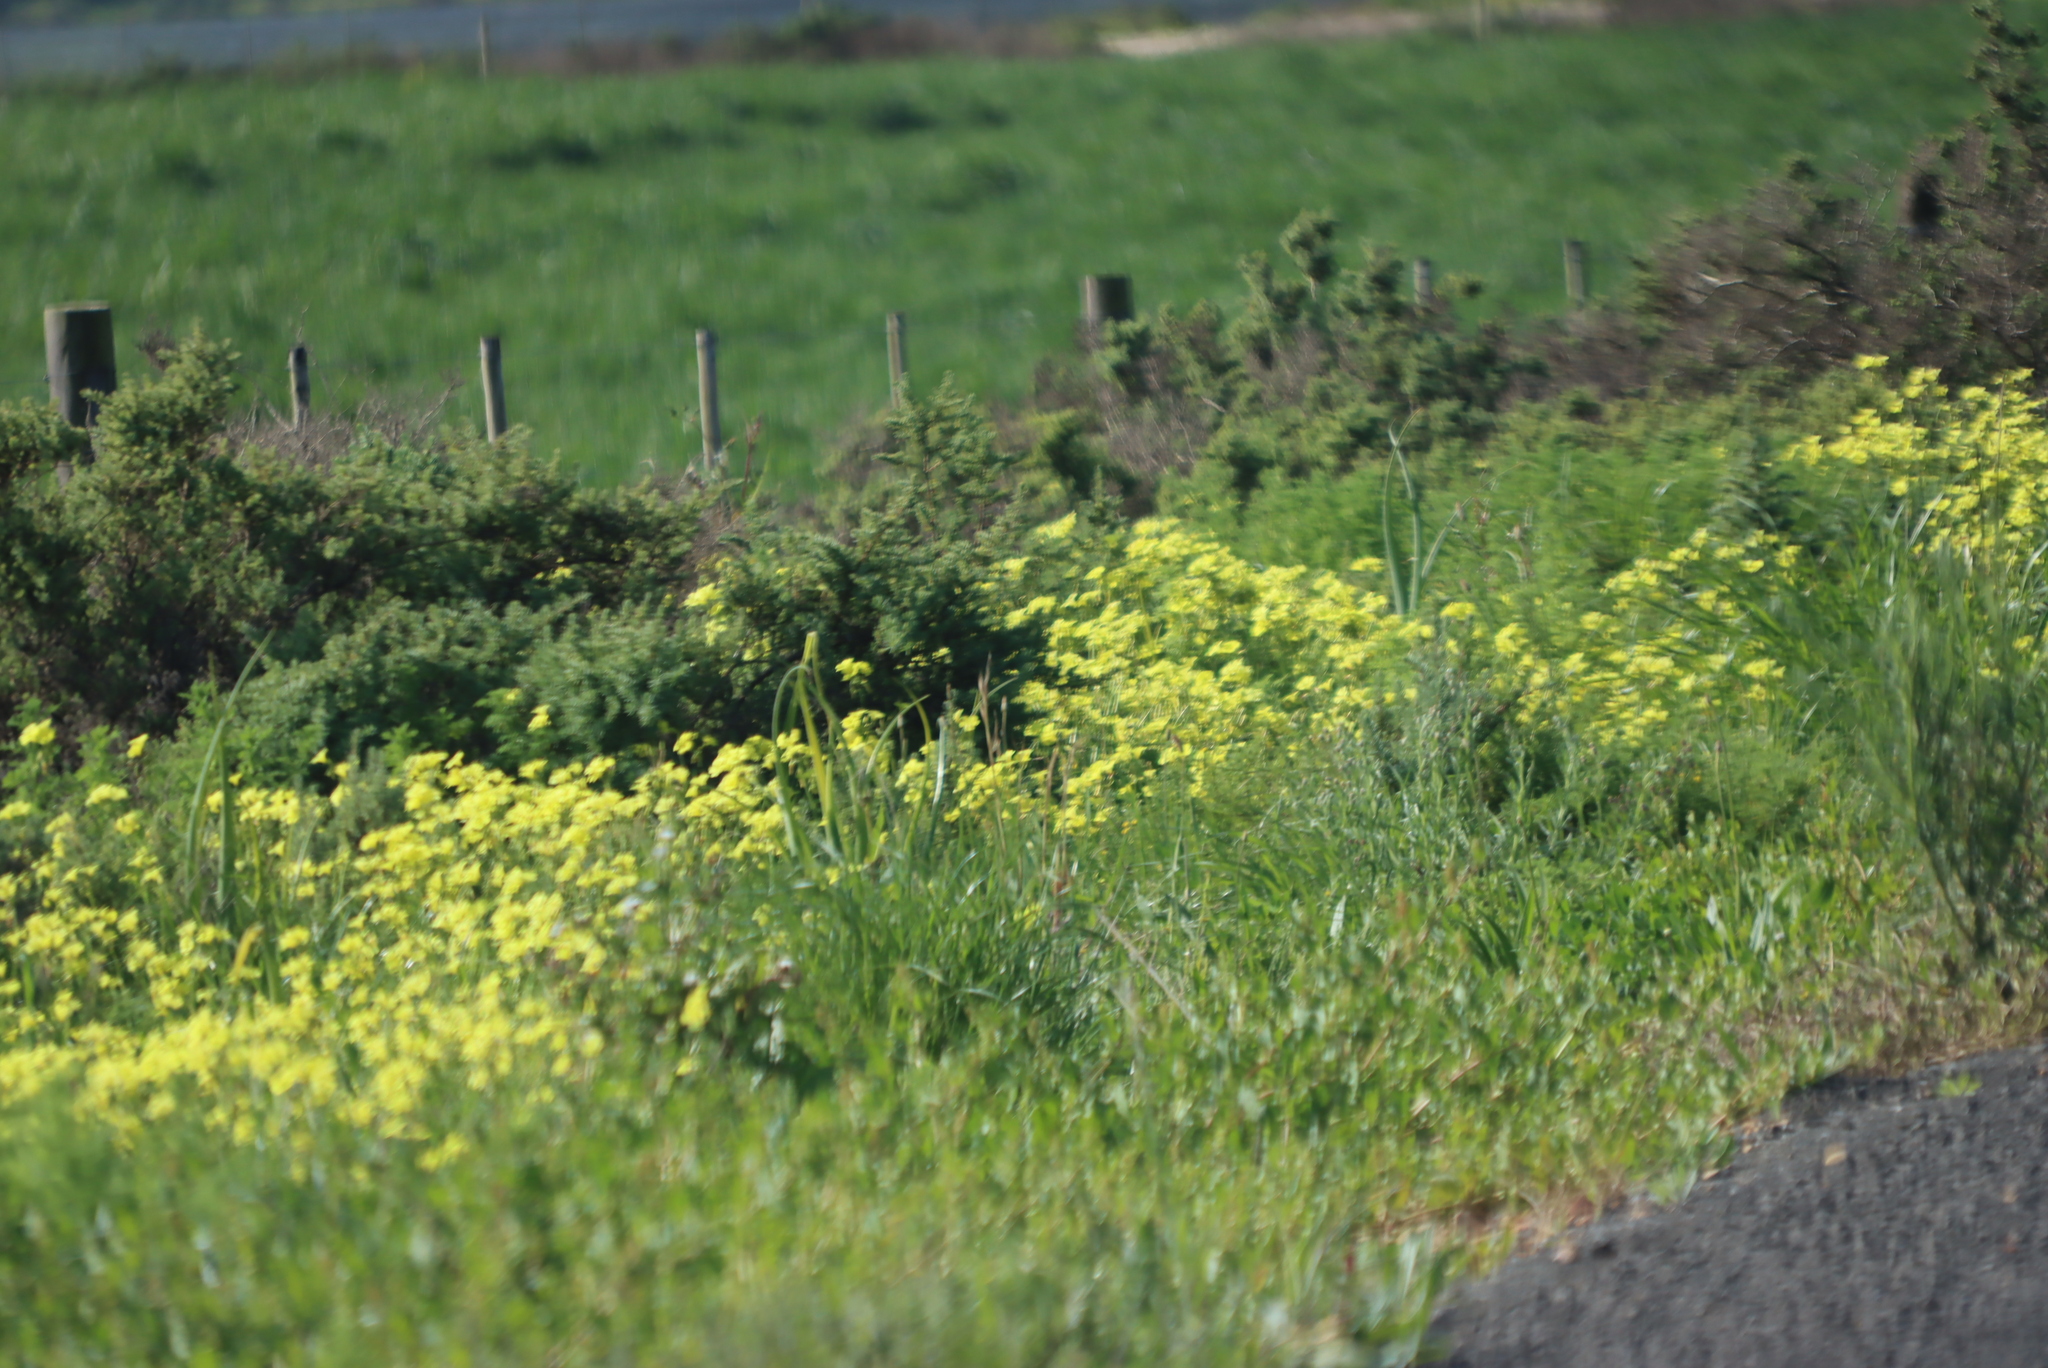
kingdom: Plantae
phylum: Tracheophyta
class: Magnoliopsida
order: Oxalidales
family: Oxalidaceae
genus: Oxalis
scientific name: Oxalis pes-caprae
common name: Bermuda-buttercup
